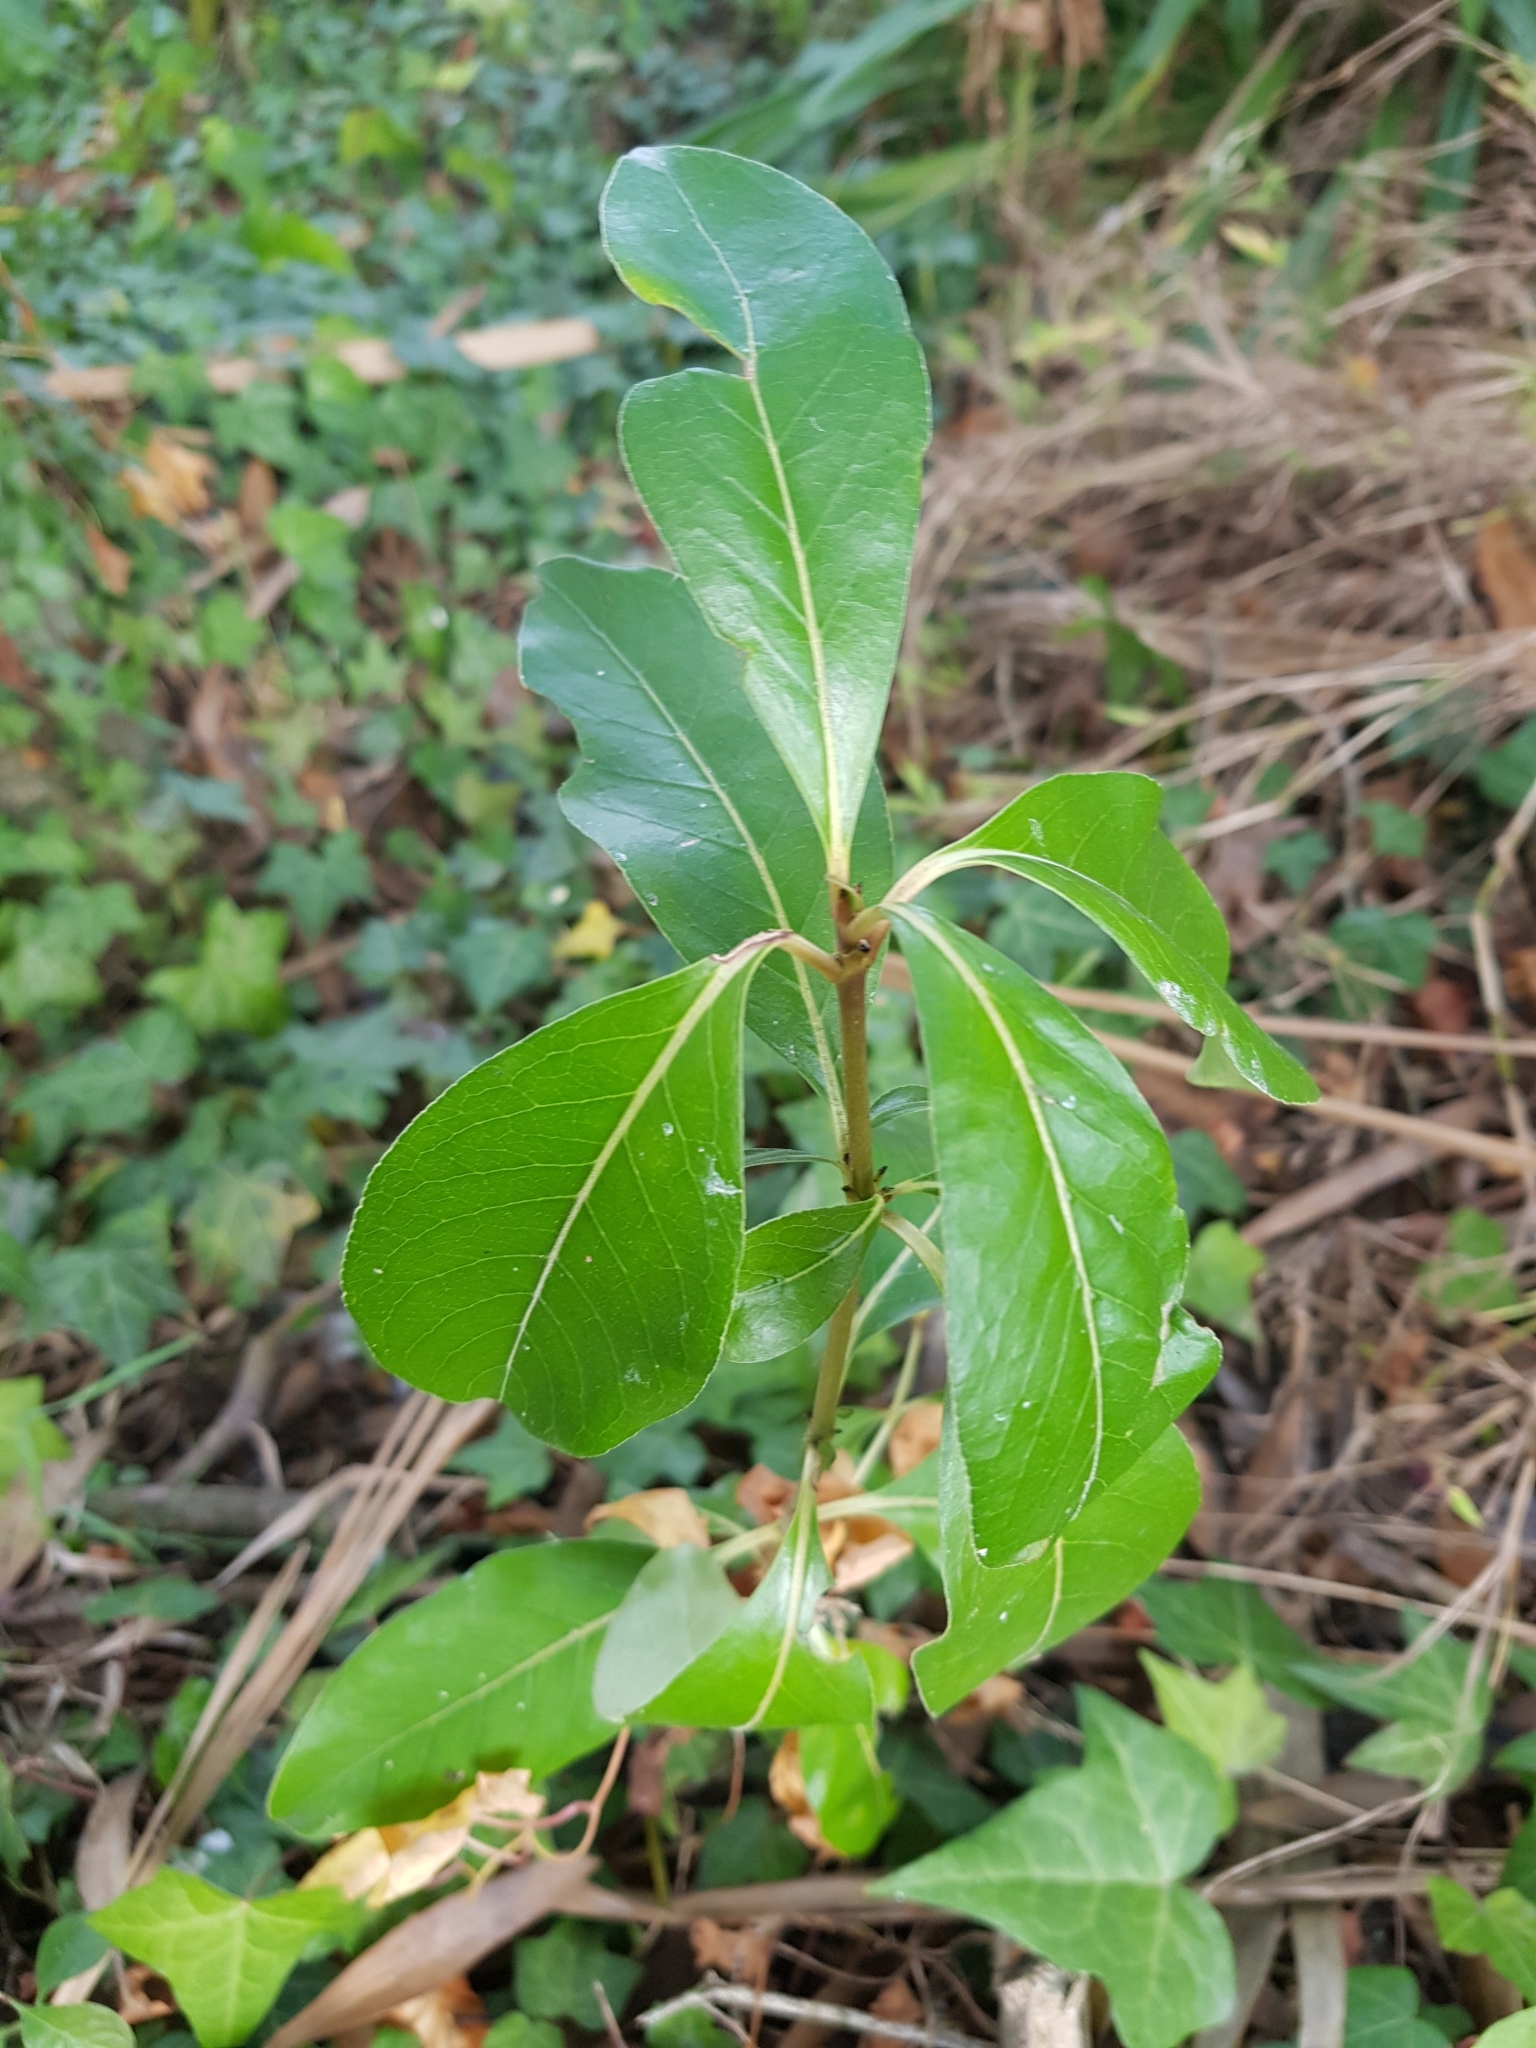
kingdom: Plantae
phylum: Tracheophyta
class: Magnoliopsida
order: Gentianales
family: Rubiaceae
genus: Coprosma
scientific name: Coprosma robusta
